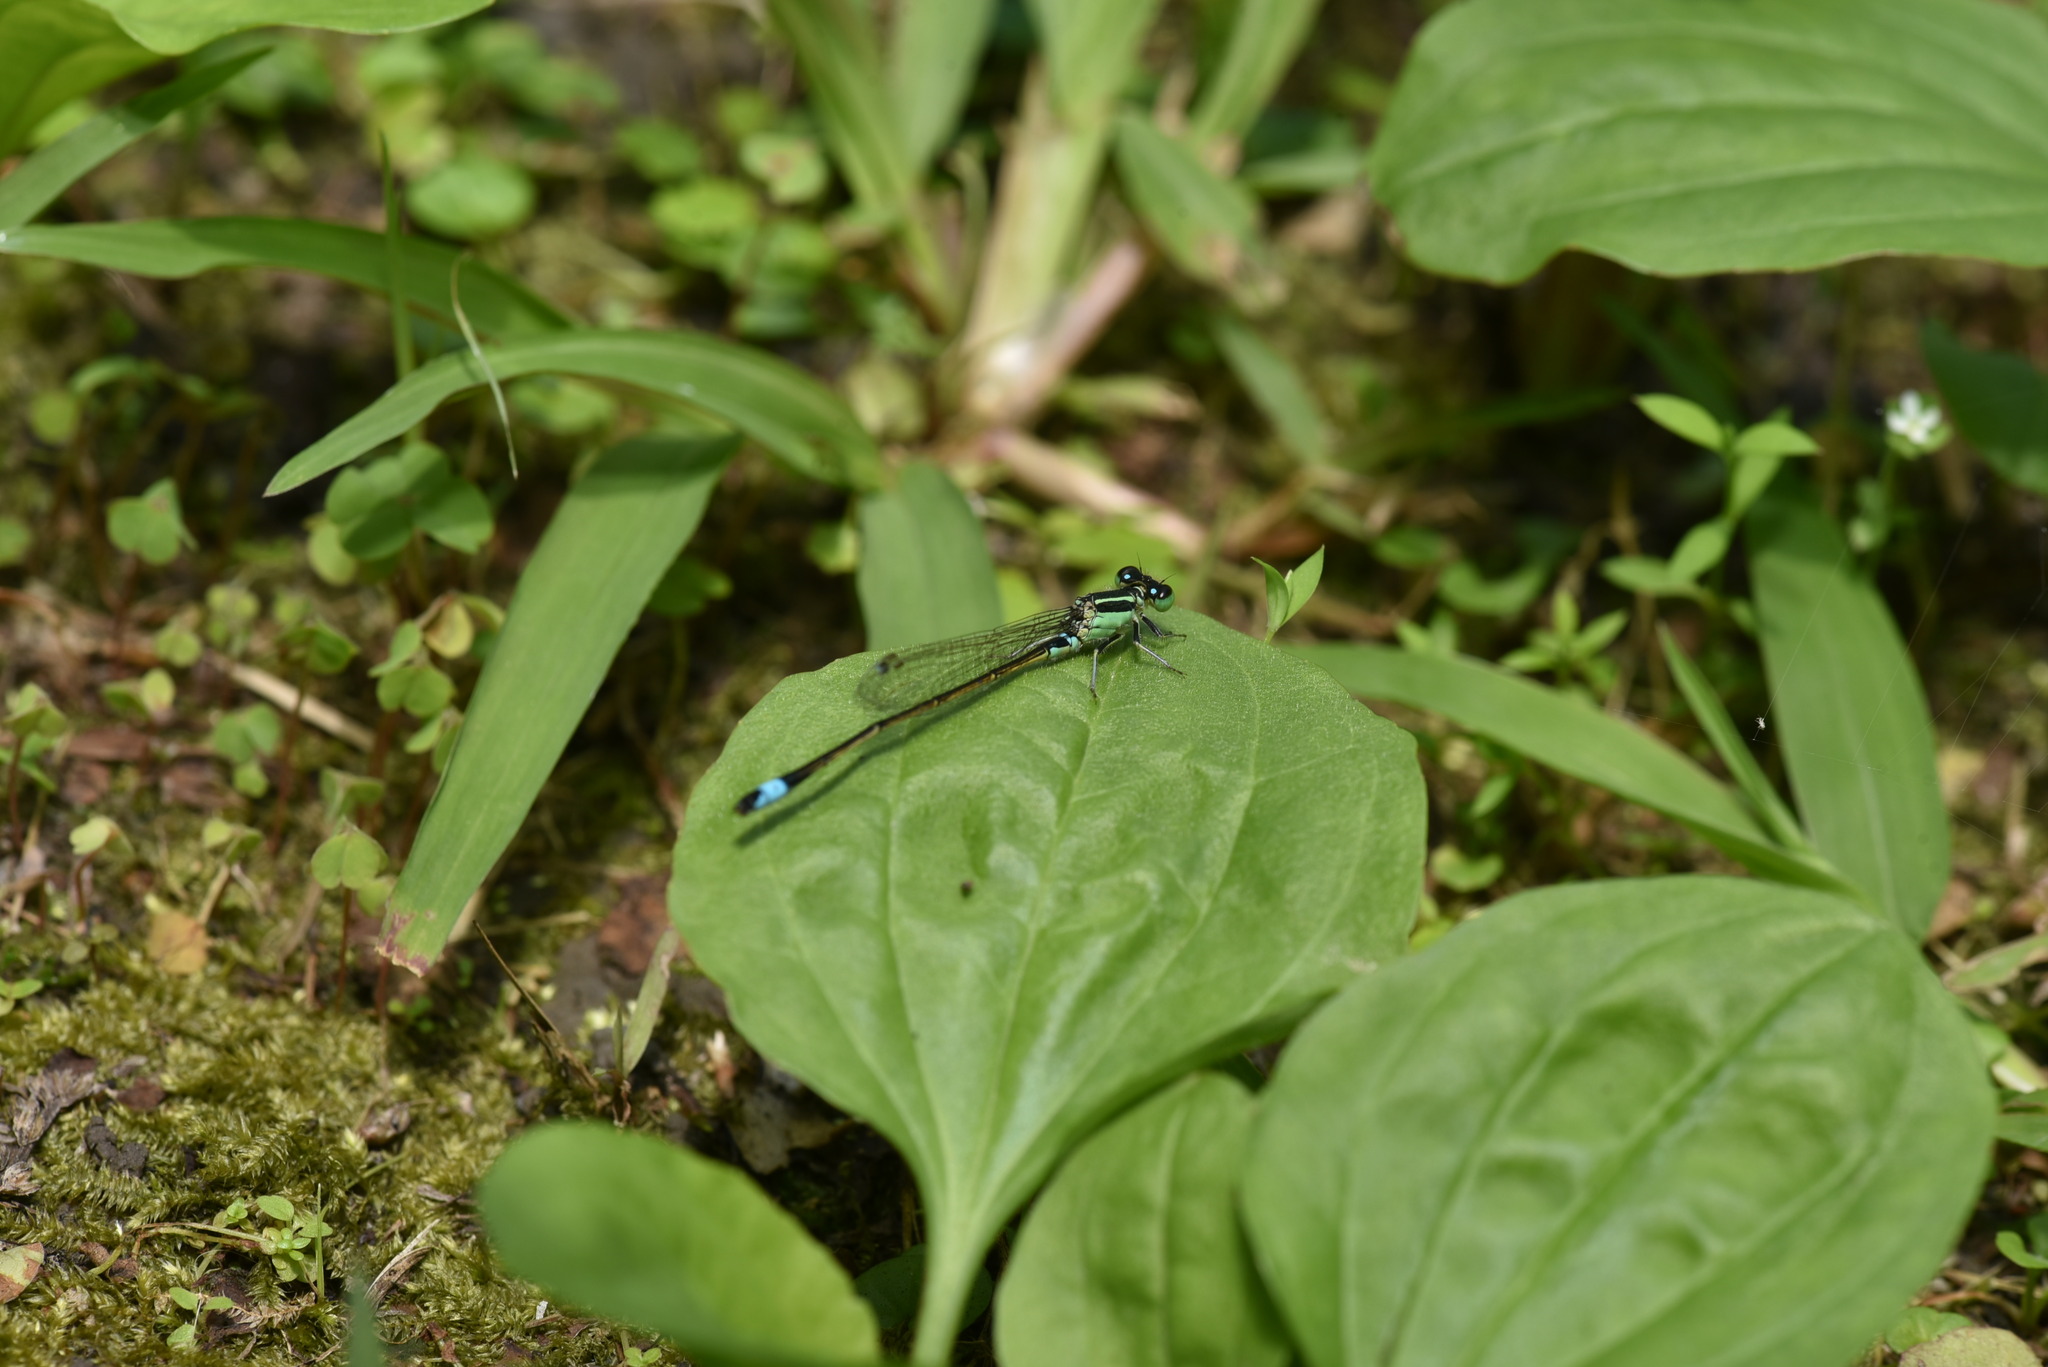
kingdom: Animalia
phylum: Arthropoda
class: Insecta
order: Odonata
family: Coenagrionidae
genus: Ischnura
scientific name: Ischnura senegalensis
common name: Tropical bluetail
